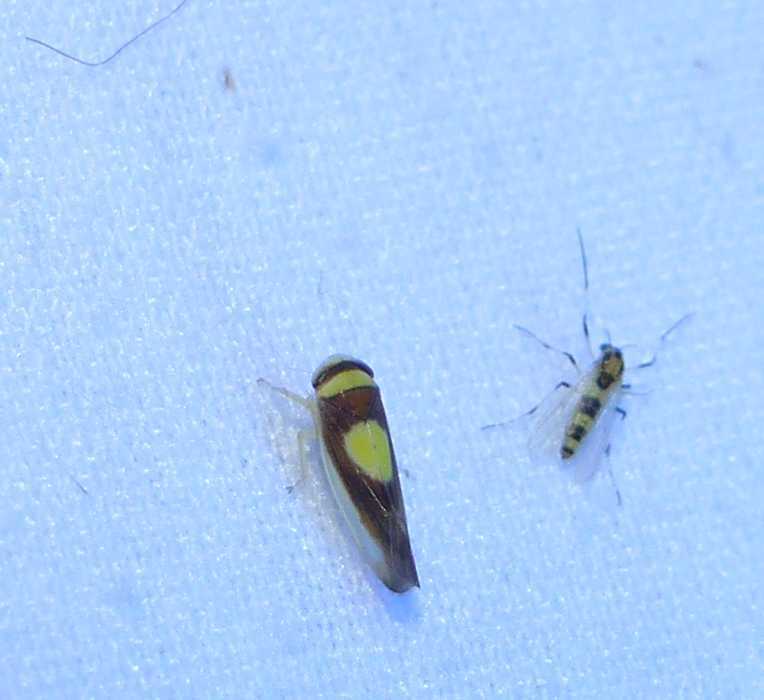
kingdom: Animalia
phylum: Arthropoda
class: Insecta
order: Hemiptera
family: Cicadellidae
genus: Colladonus
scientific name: Colladonus clitellarius
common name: The saddleback leafhopper
